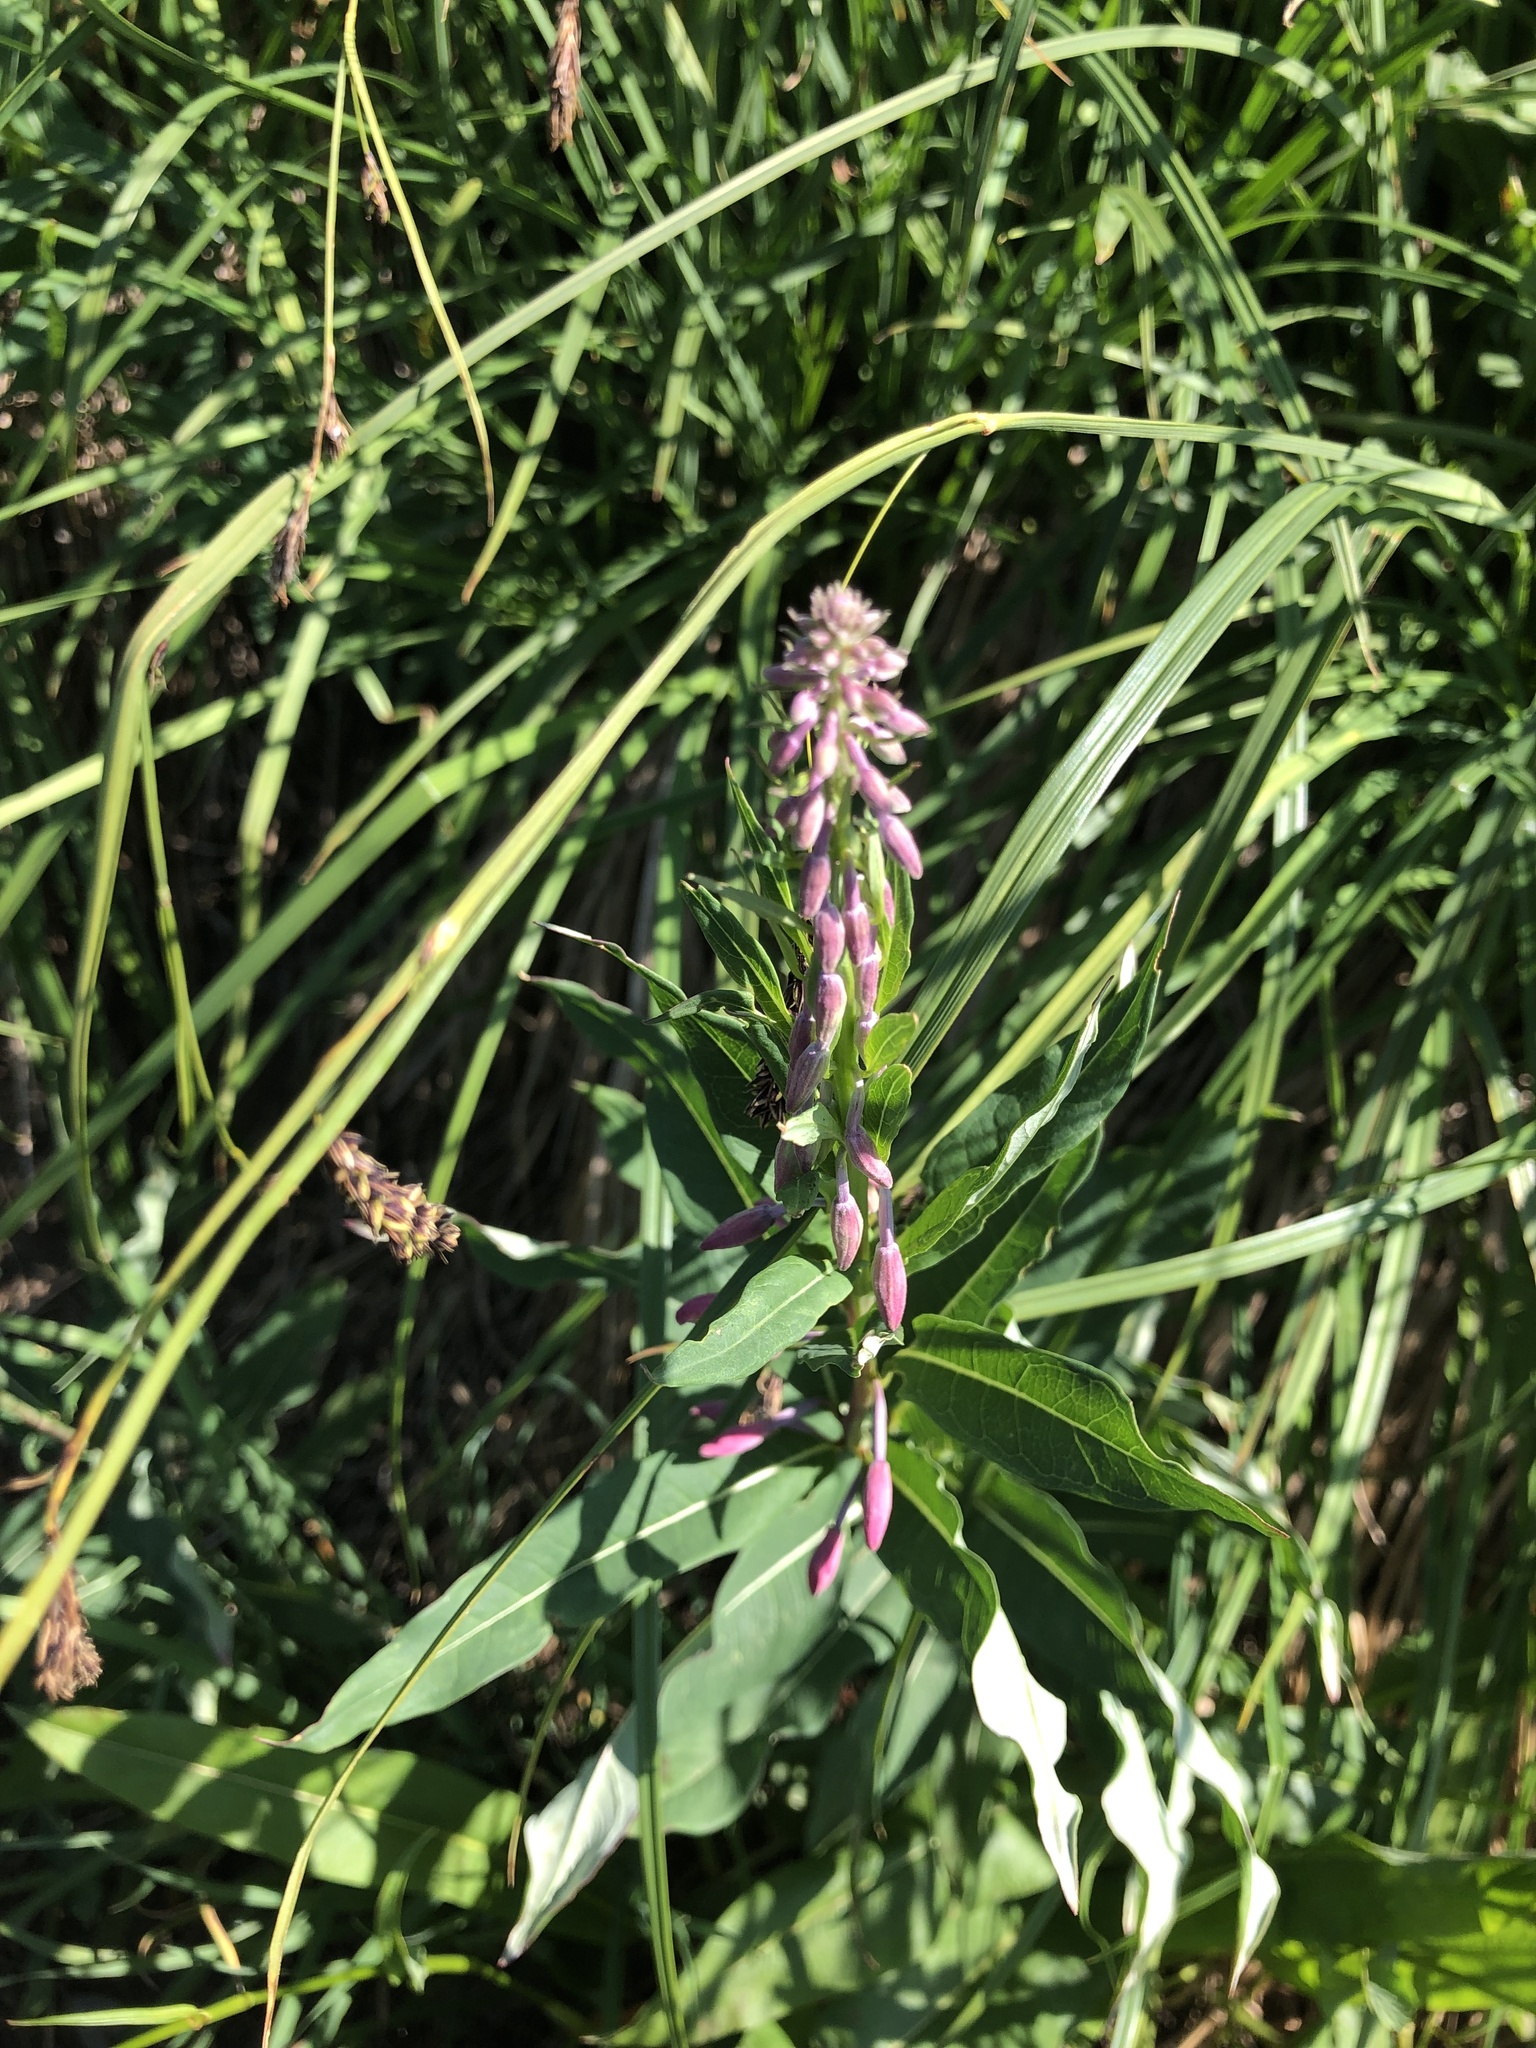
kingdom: Plantae
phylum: Tracheophyta
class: Magnoliopsida
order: Myrtales
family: Onagraceae
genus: Chamaenerion
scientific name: Chamaenerion angustifolium
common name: Fireweed
